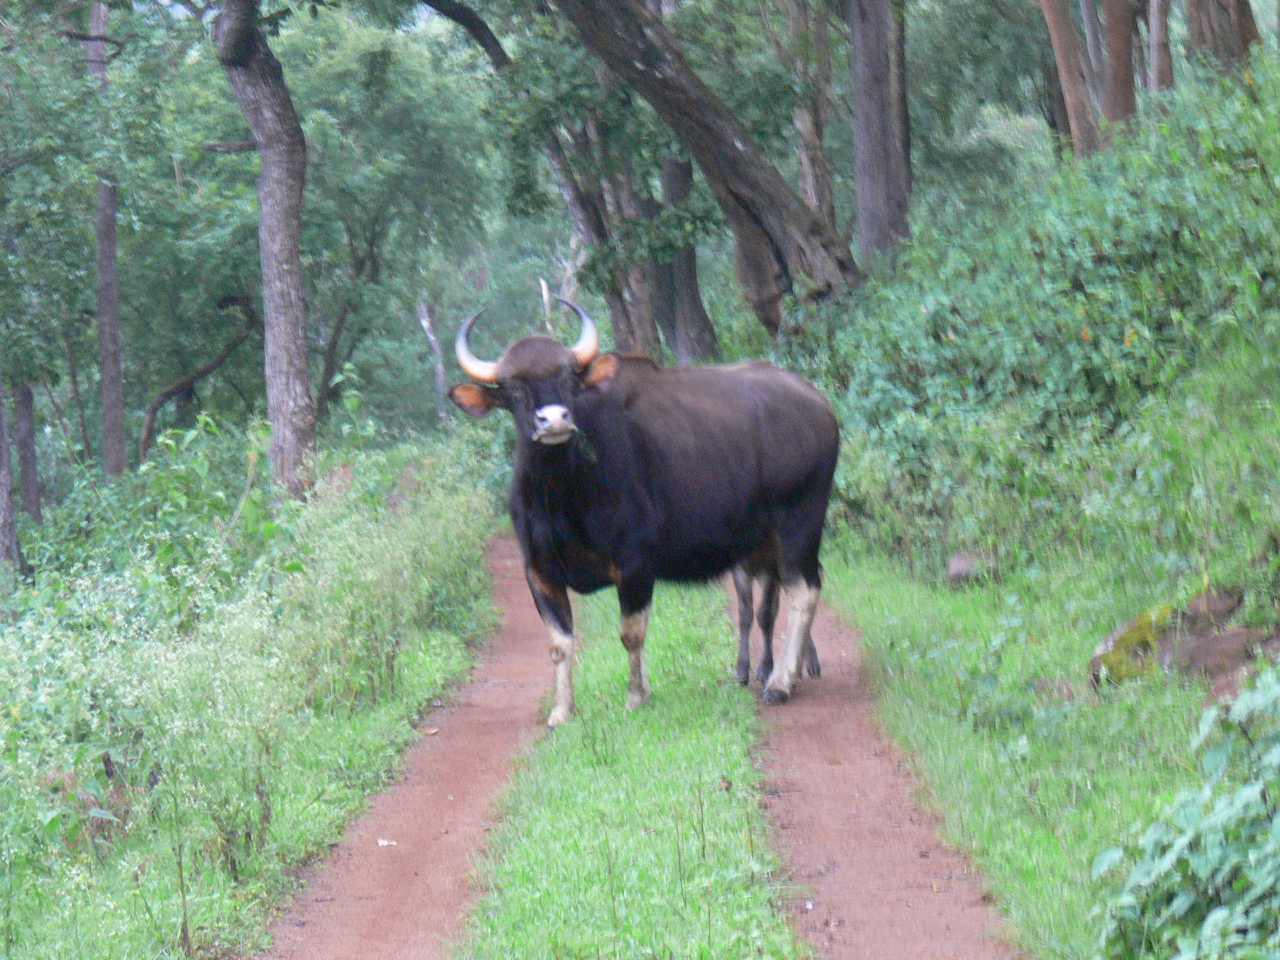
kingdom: Animalia
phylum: Chordata
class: Mammalia
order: Artiodactyla
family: Bovidae
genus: Bos
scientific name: Bos frontalis
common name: Gaur
